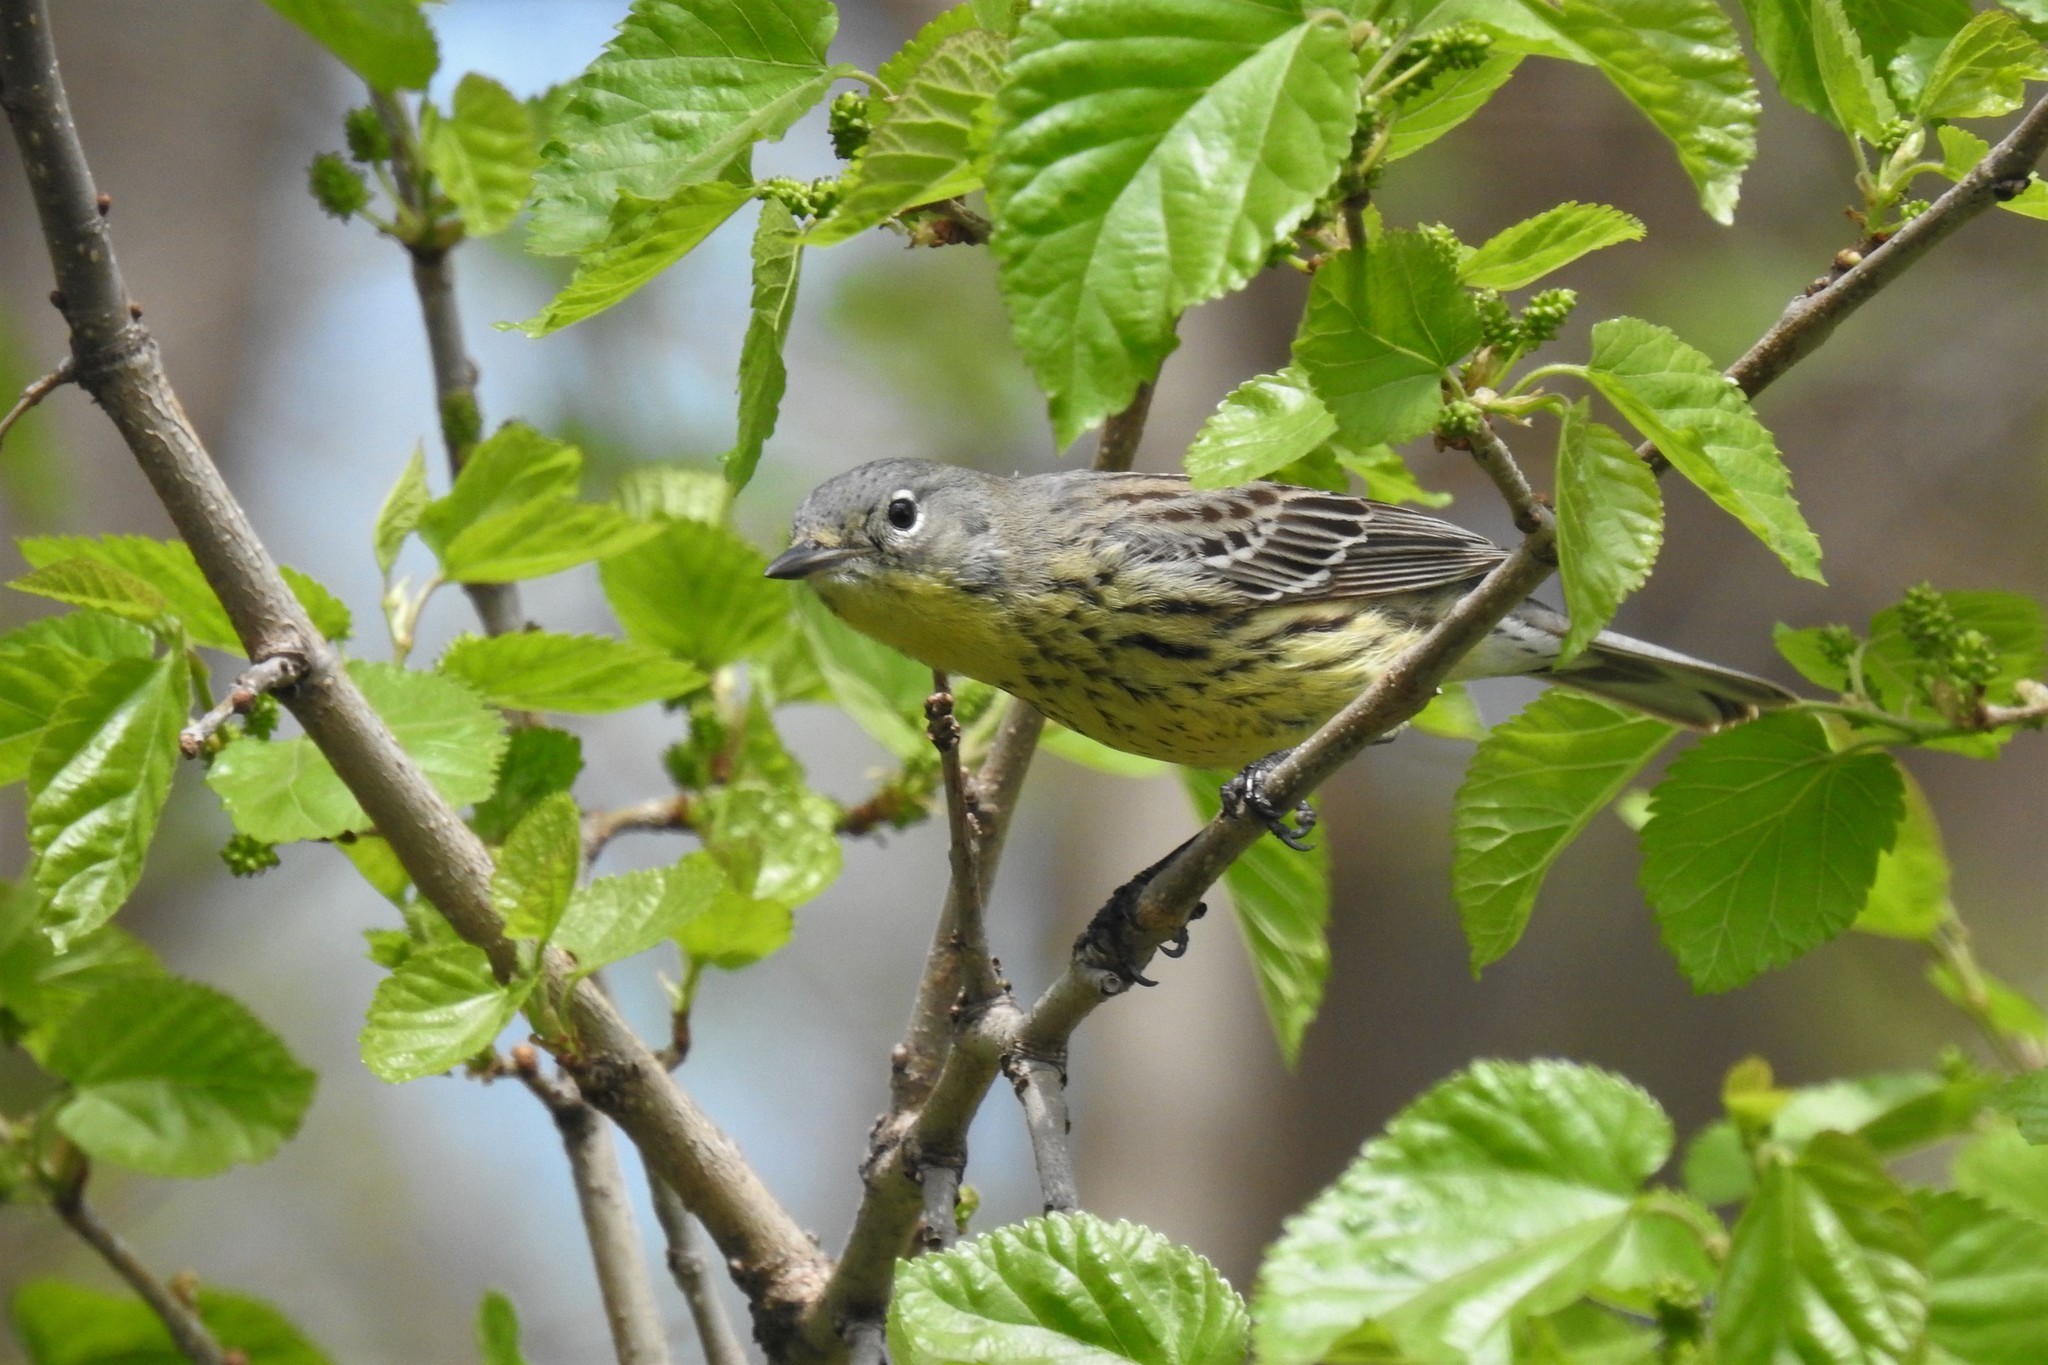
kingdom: Animalia
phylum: Chordata
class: Aves
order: Passeriformes
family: Parulidae
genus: Setophaga
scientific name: Setophaga kirtlandii
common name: Kirtland's warbler
